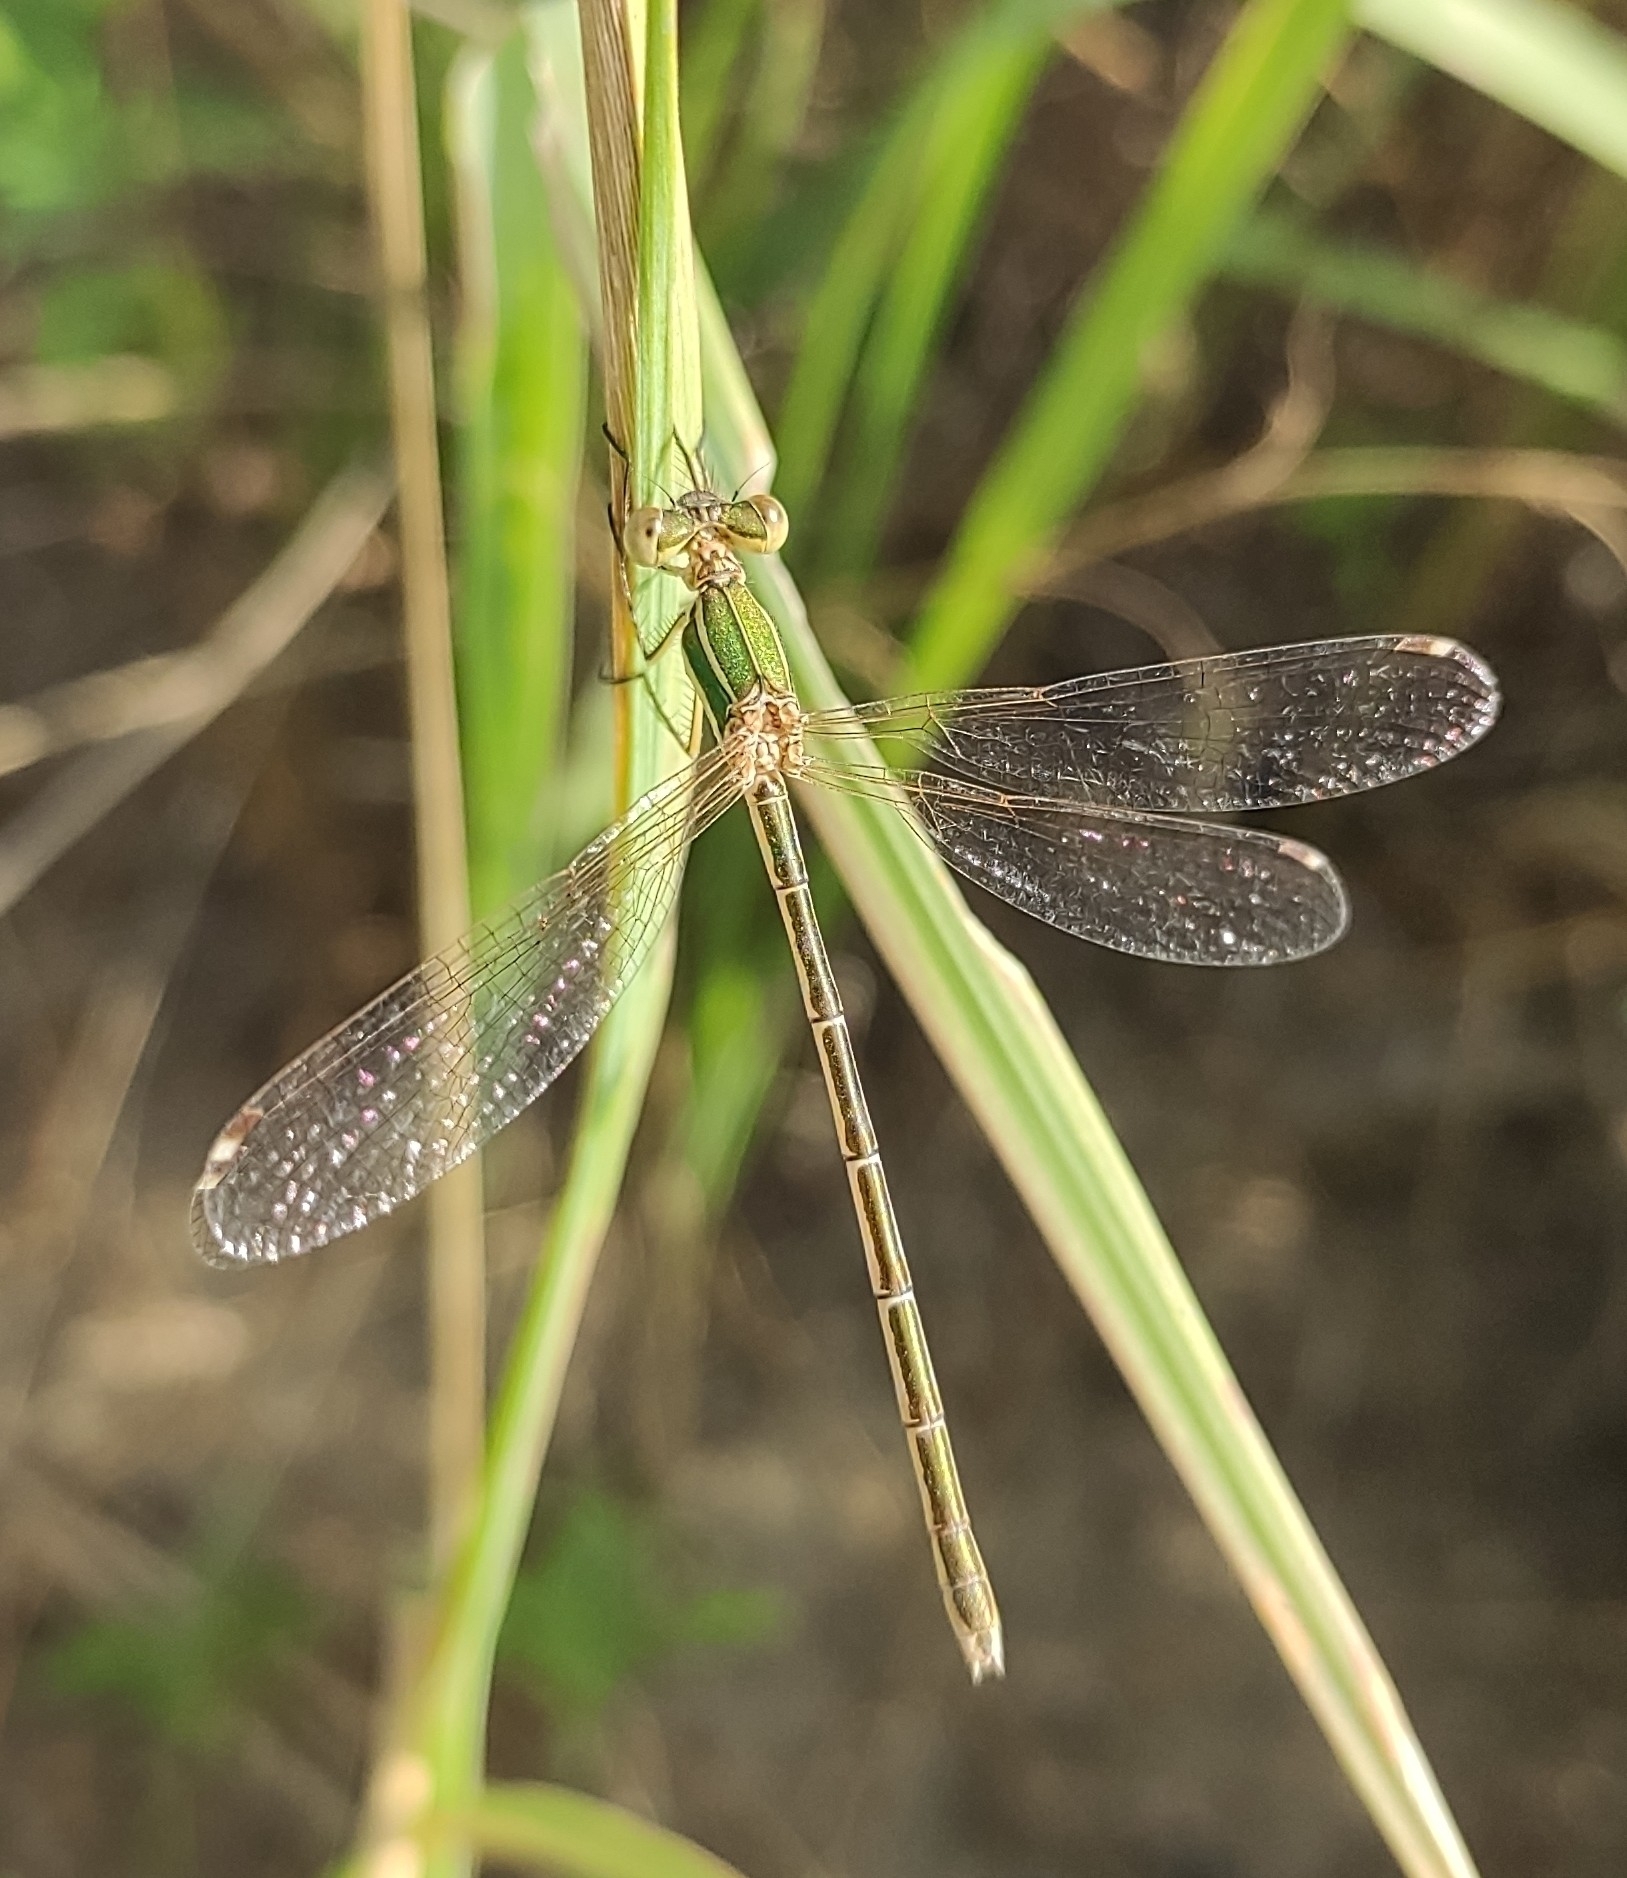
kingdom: Animalia
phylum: Arthropoda
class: Insecta
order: Odonata
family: Lestidae
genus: Lestes
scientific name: Lestes barbarus
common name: Migrant spreadwing
